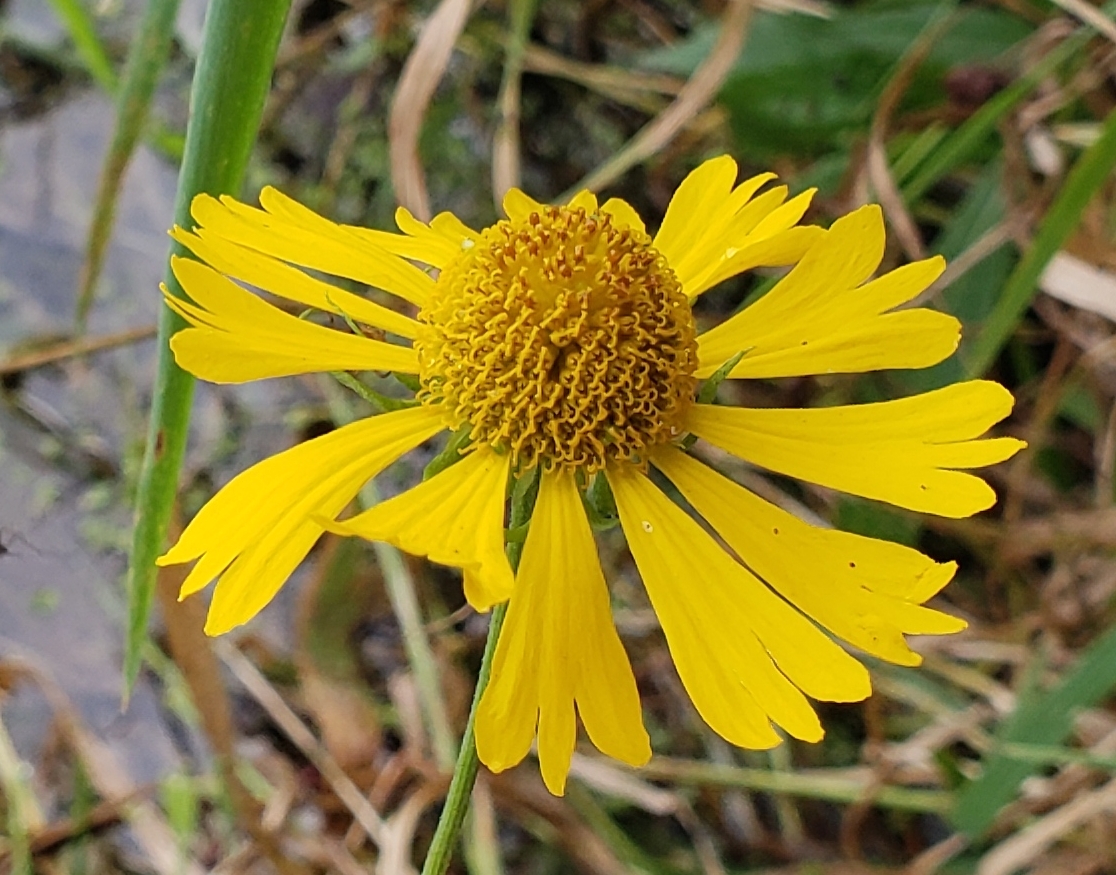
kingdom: Plantae
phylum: Tracheophyta
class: Magnoliopsida
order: Asterales
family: Asteraceae
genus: Helenium
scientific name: Helenium autumnale
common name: Sneezeweed
